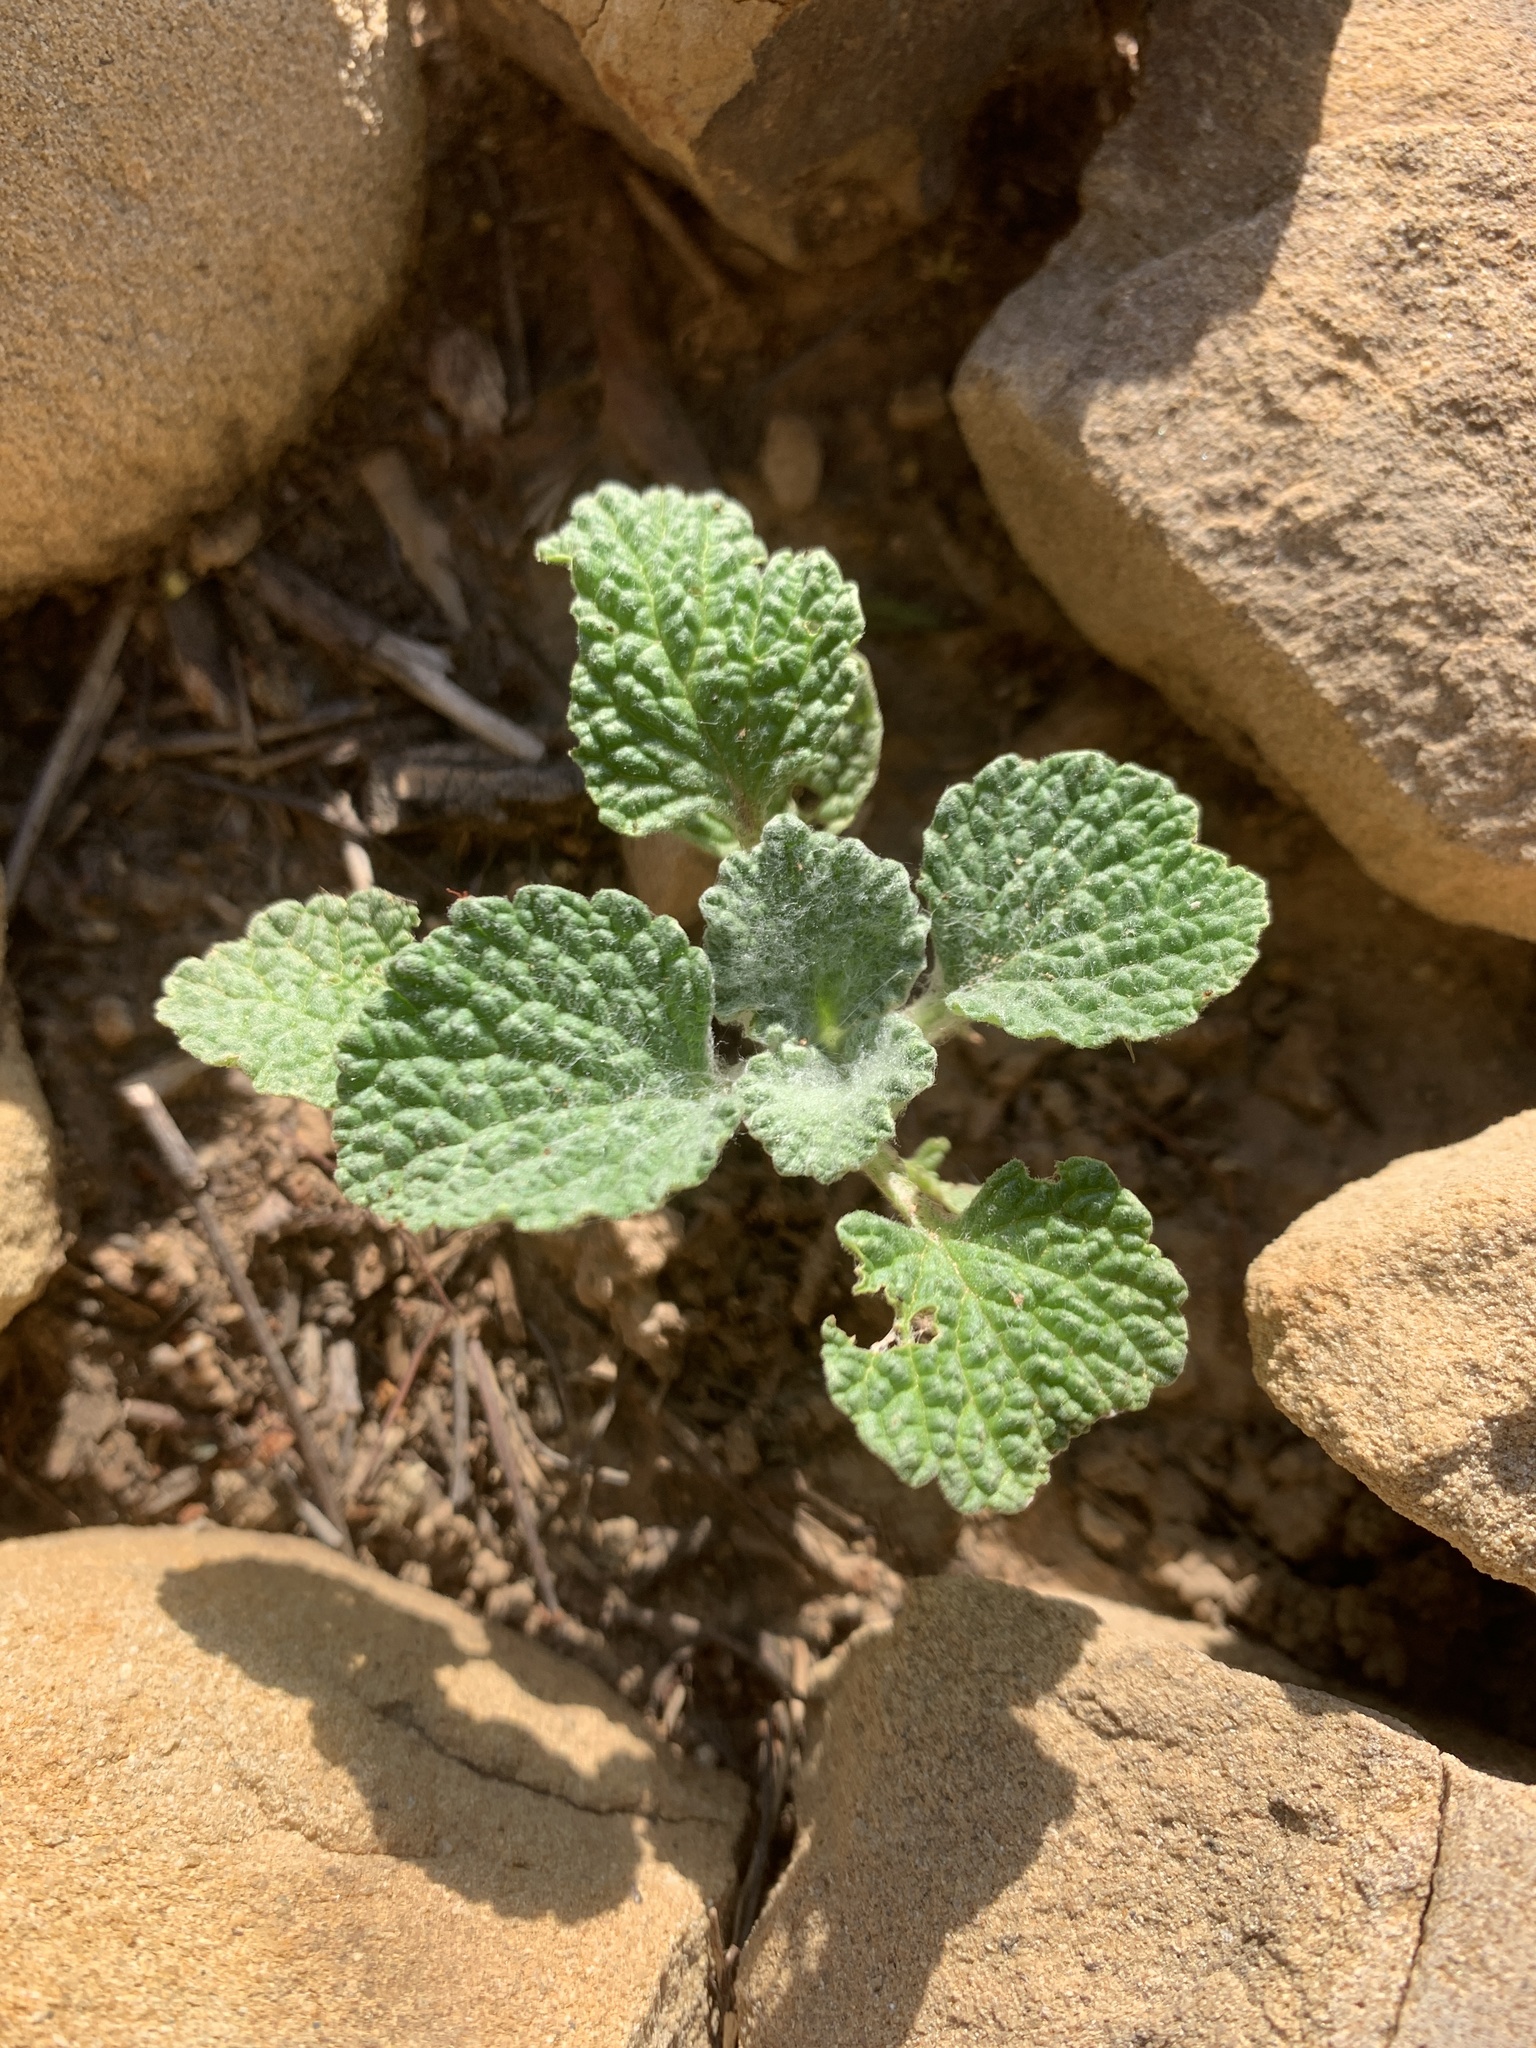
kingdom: Plantae
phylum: Tracheophyta
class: Magnoliopsida
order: Lamiales
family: Lamiaceae
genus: Marrubium
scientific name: Marrubium vulgare
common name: Horehound
